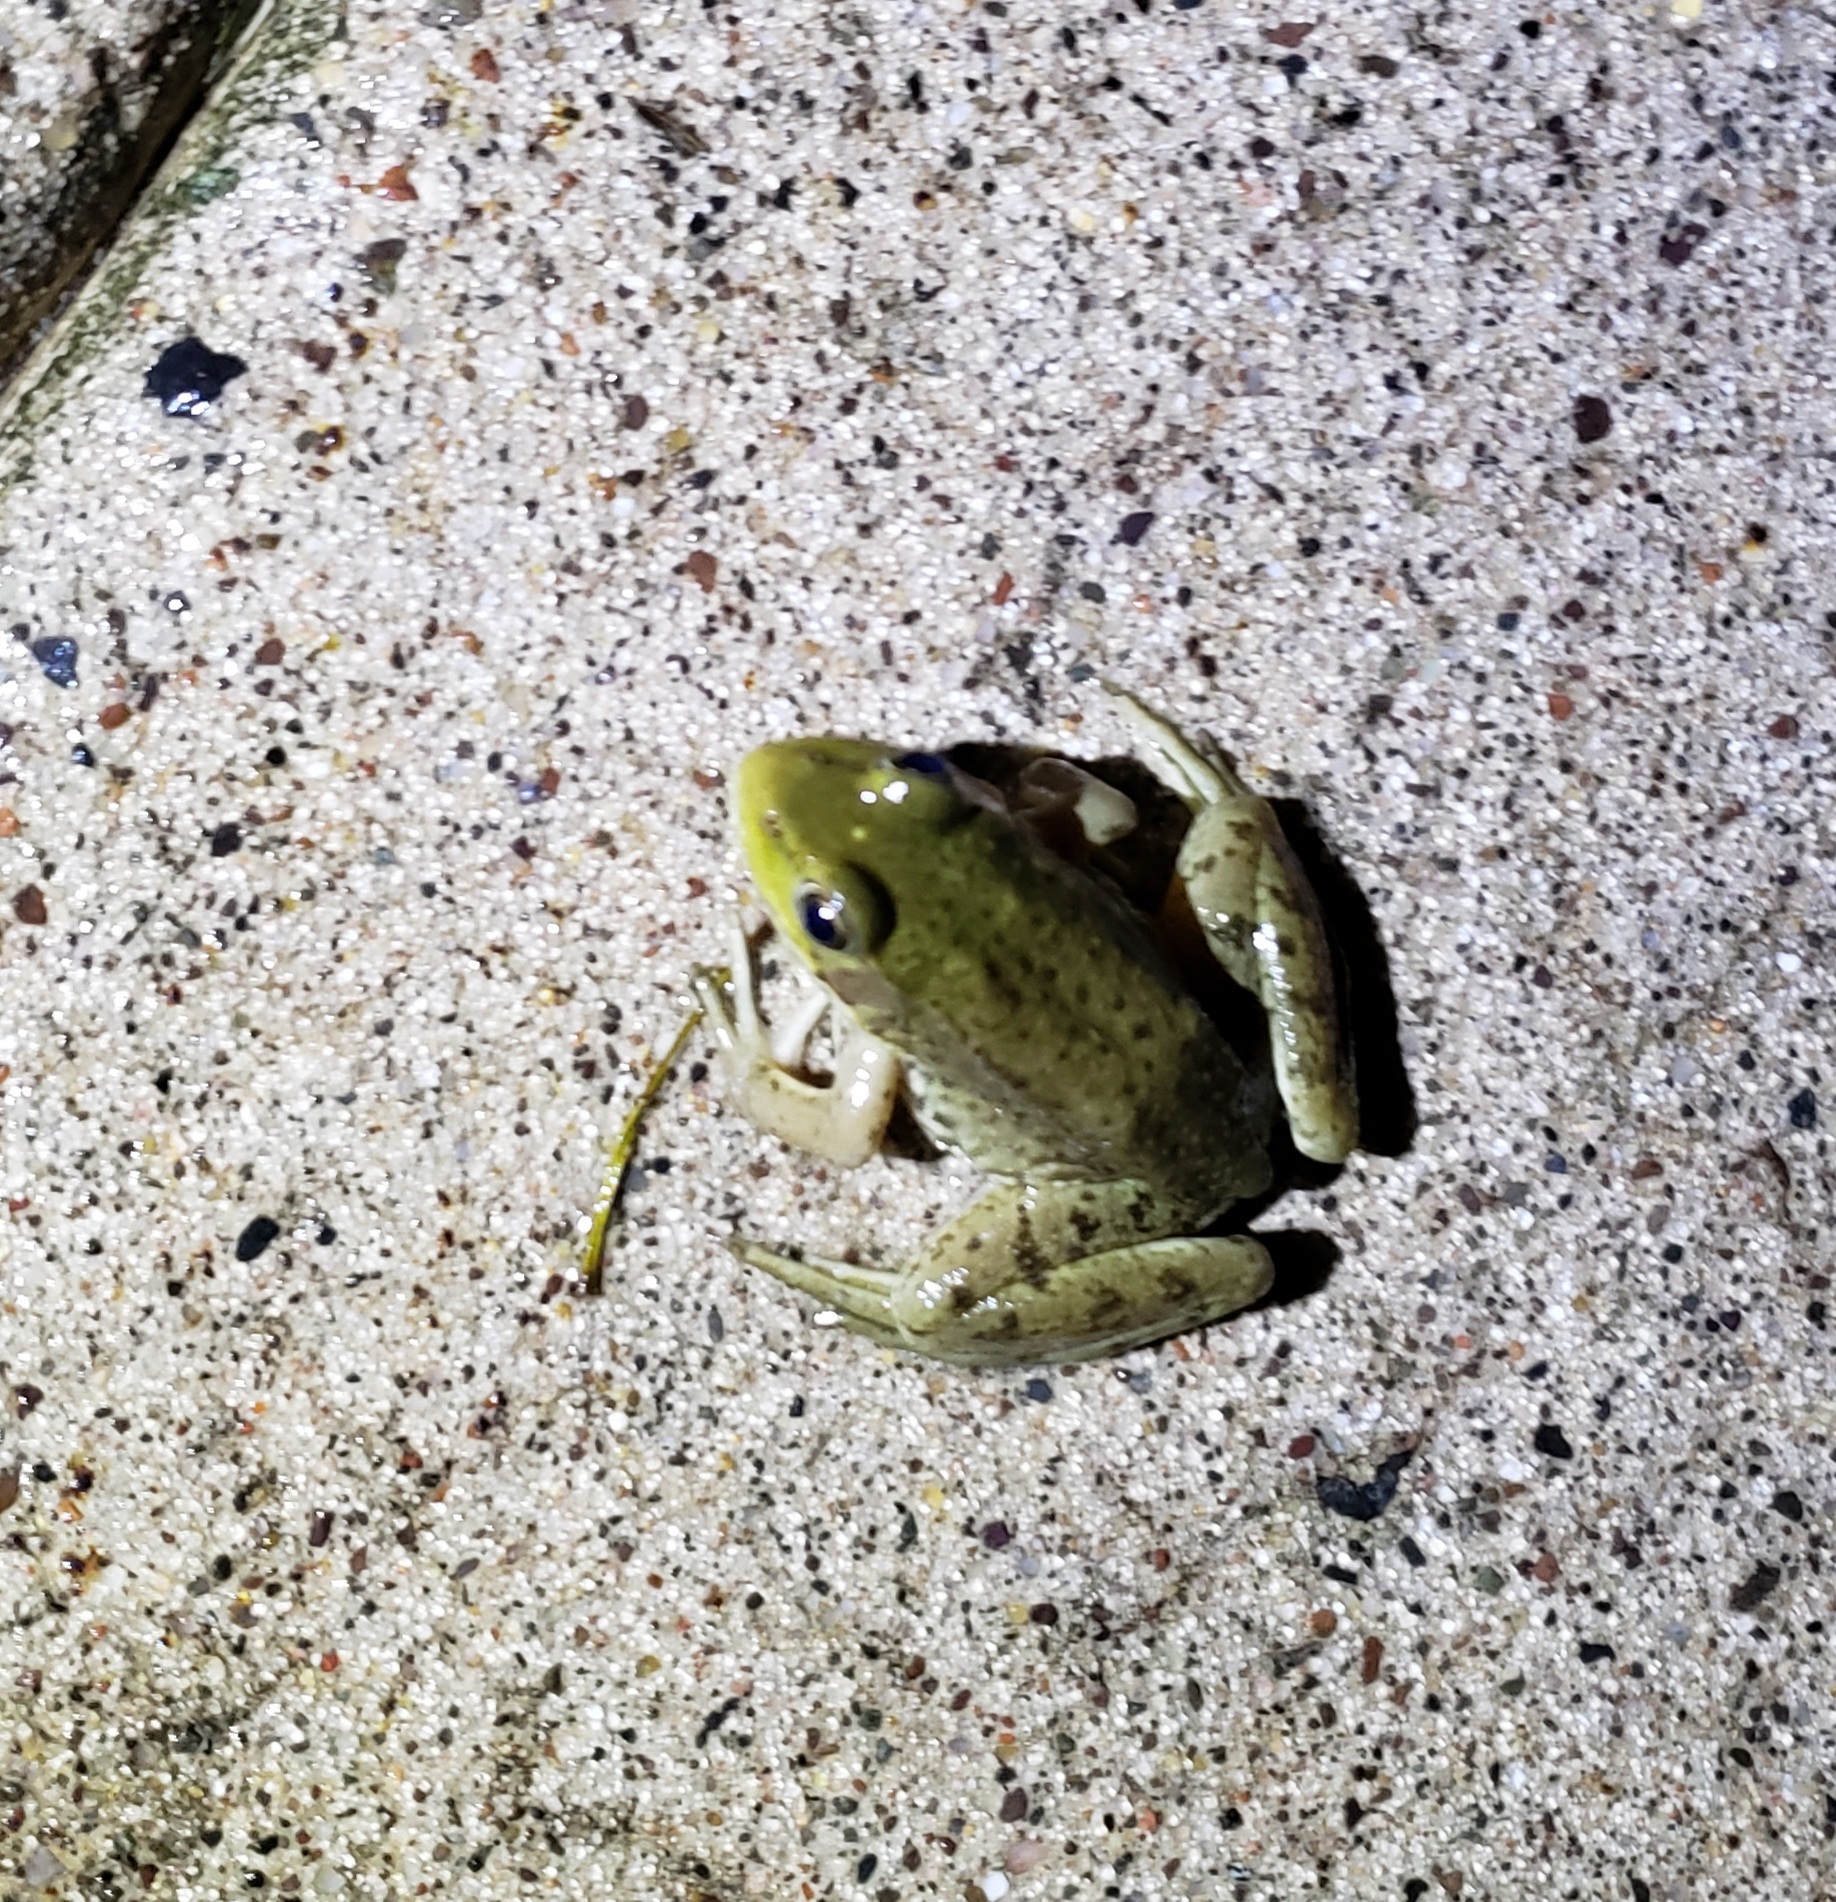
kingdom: Animalia
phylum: Chordata
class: Amphibia
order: Anura
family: Ranidae
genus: Lithobates
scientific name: Lithobates clamitans
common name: Green frog
